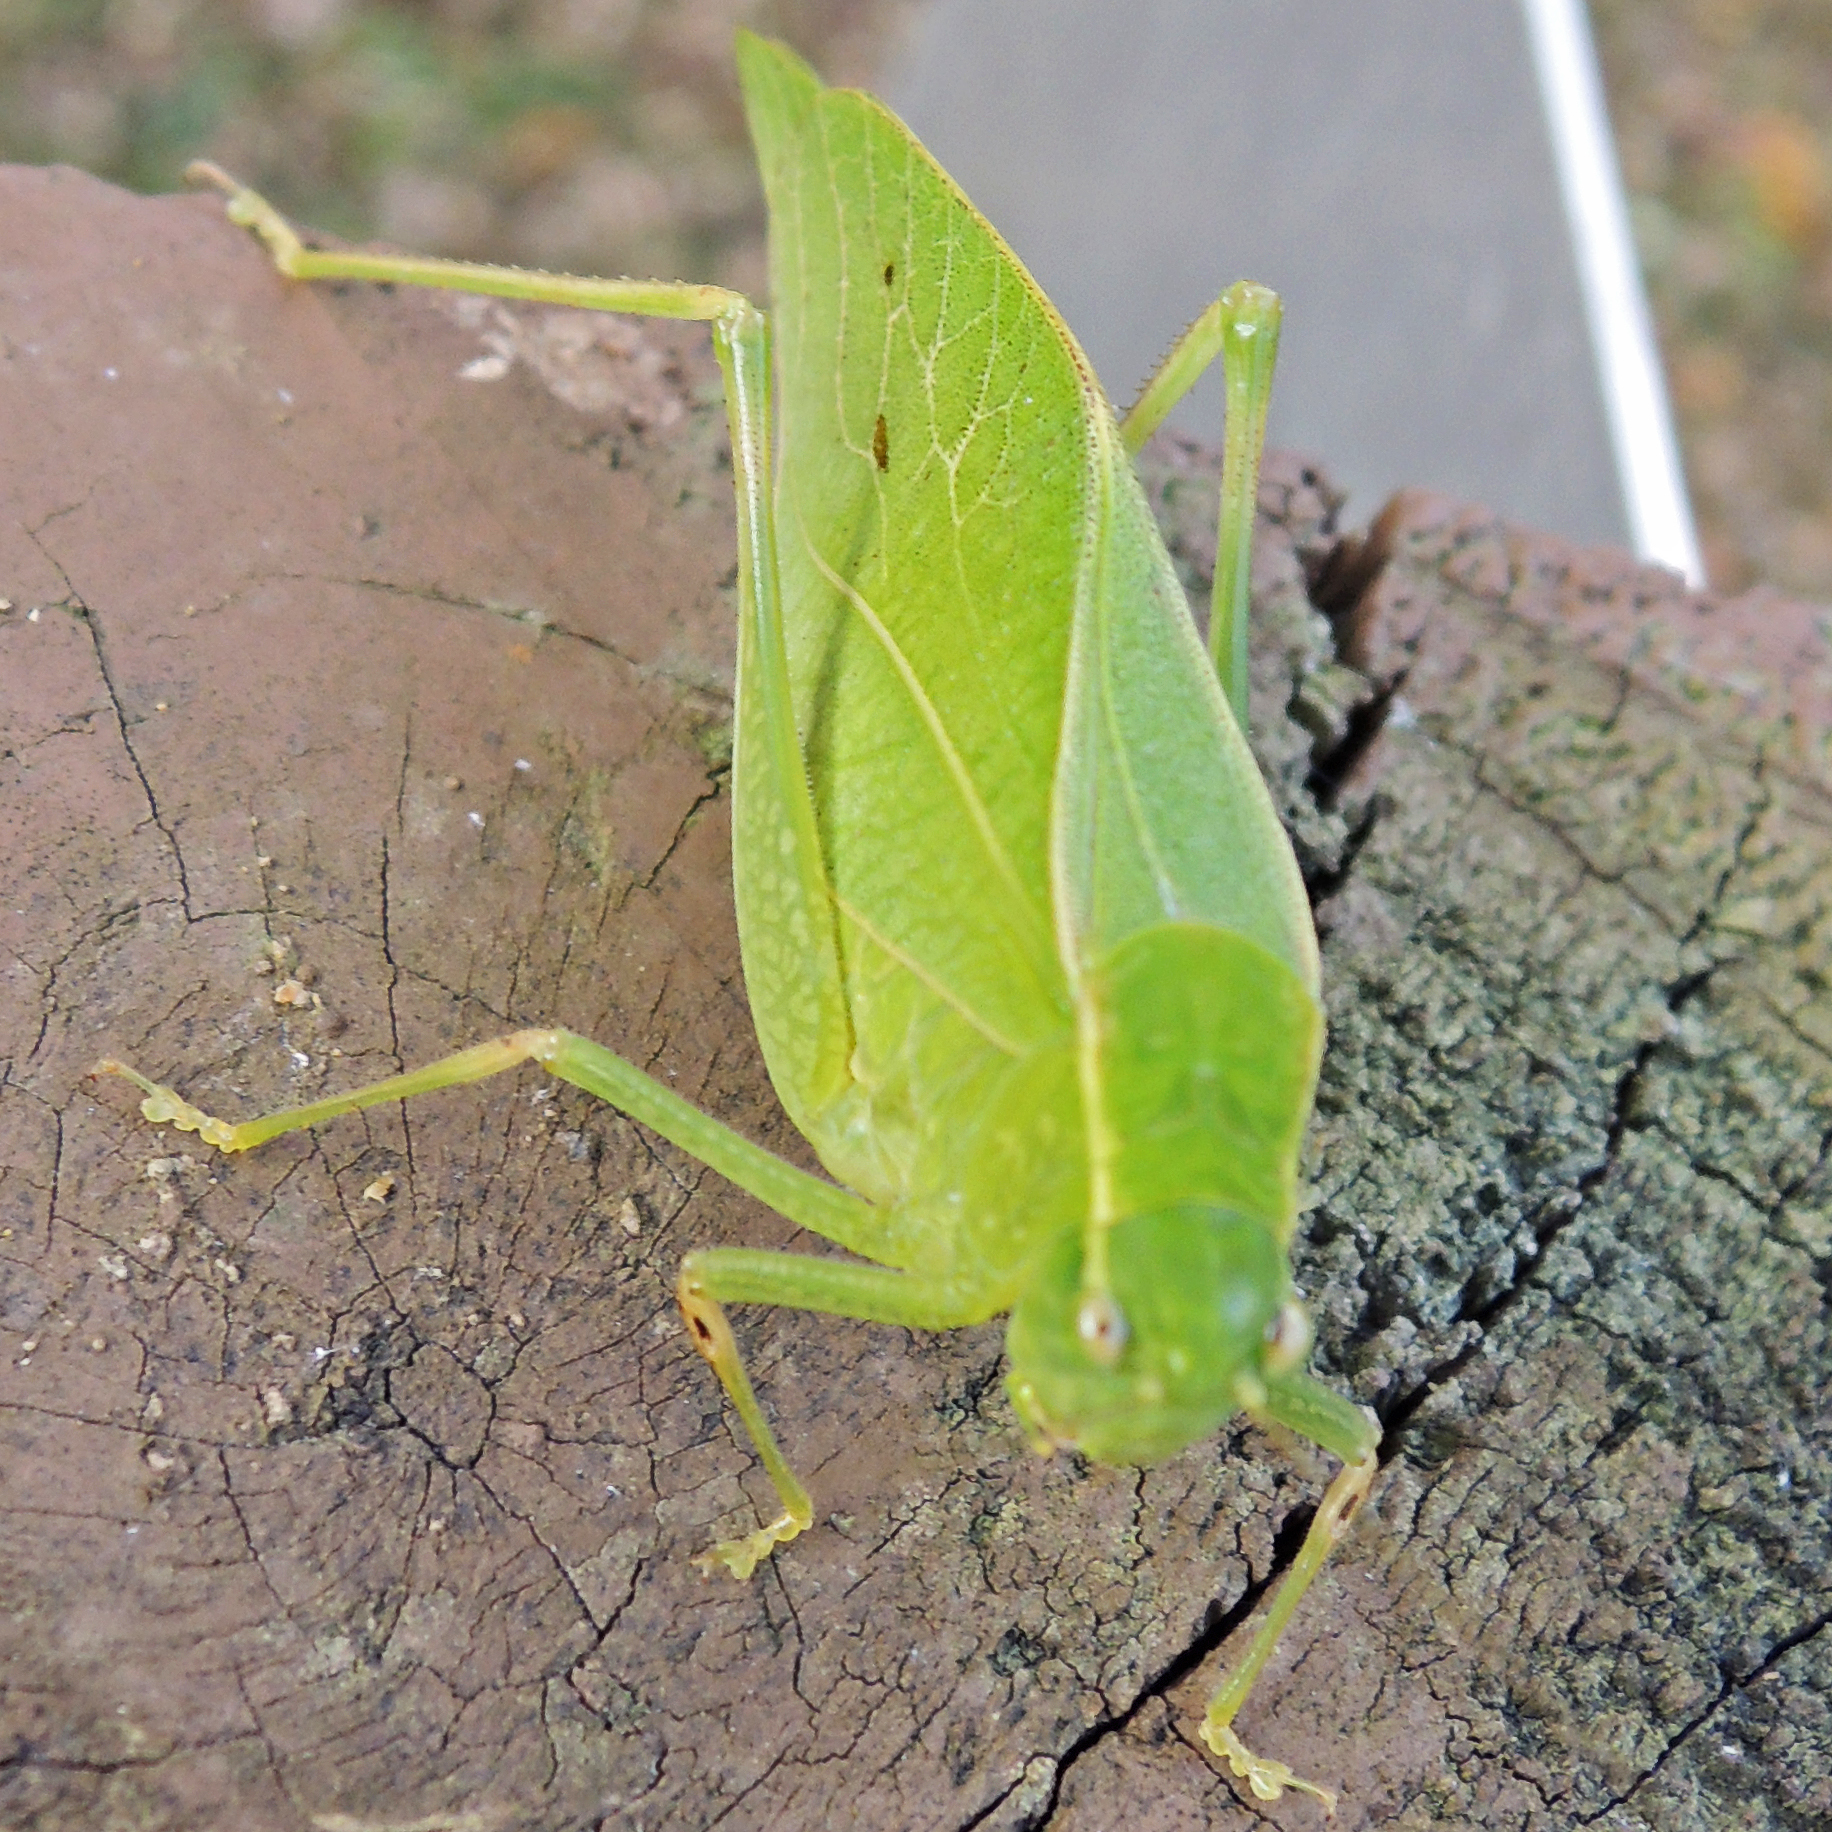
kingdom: Animalia
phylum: Arthropoda
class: Insecta
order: Orthoptera
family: Tettigoniidae
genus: Microcentrum
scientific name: Microcentrum retinerve
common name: Angular-winged katydid
